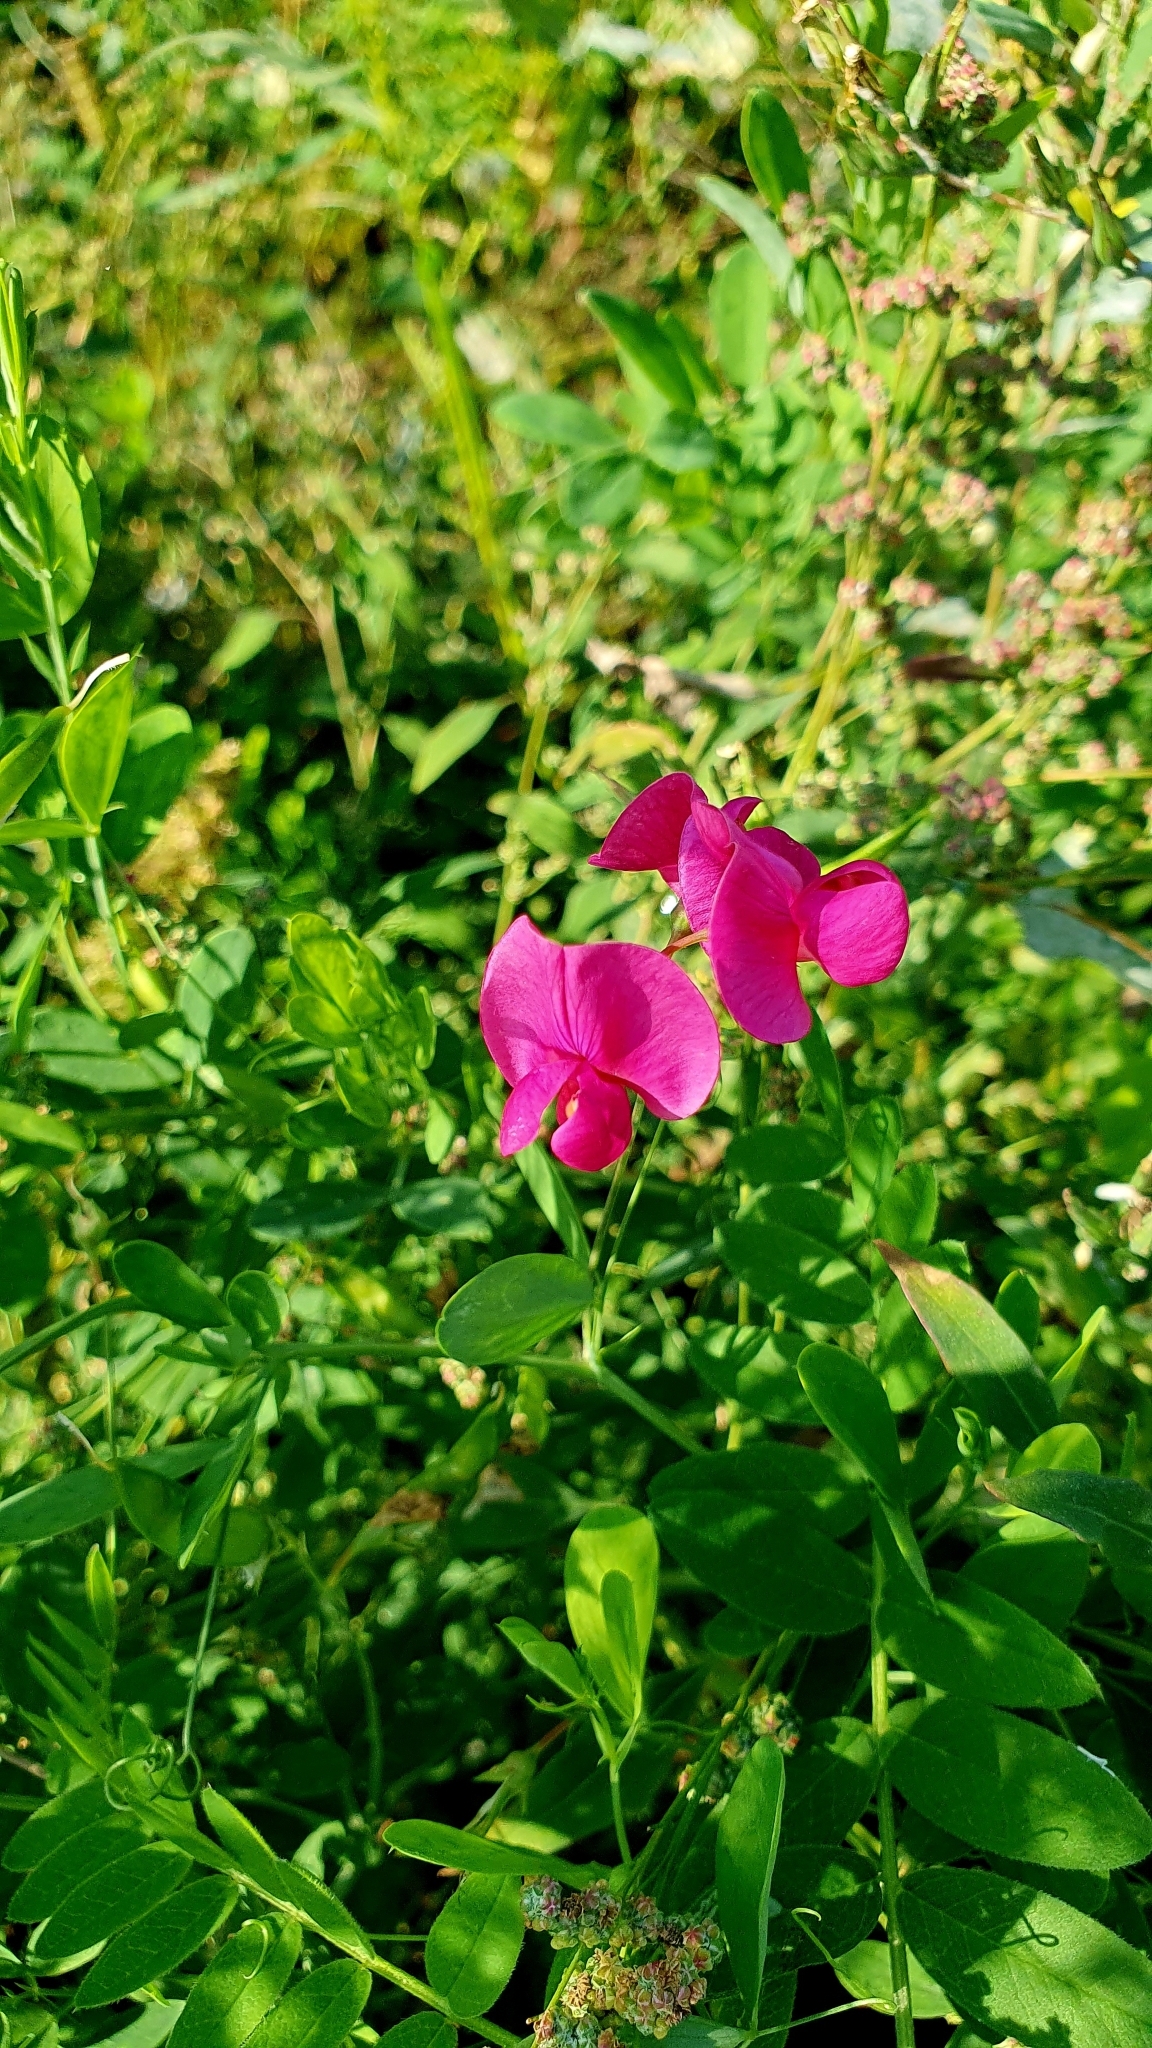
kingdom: Plantae
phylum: Tracheophyta
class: Magnoliopsida
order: Fabales
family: Fabaceae
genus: Lathyrus
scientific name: Lathyrus tuberosus
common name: Tuberous pea
